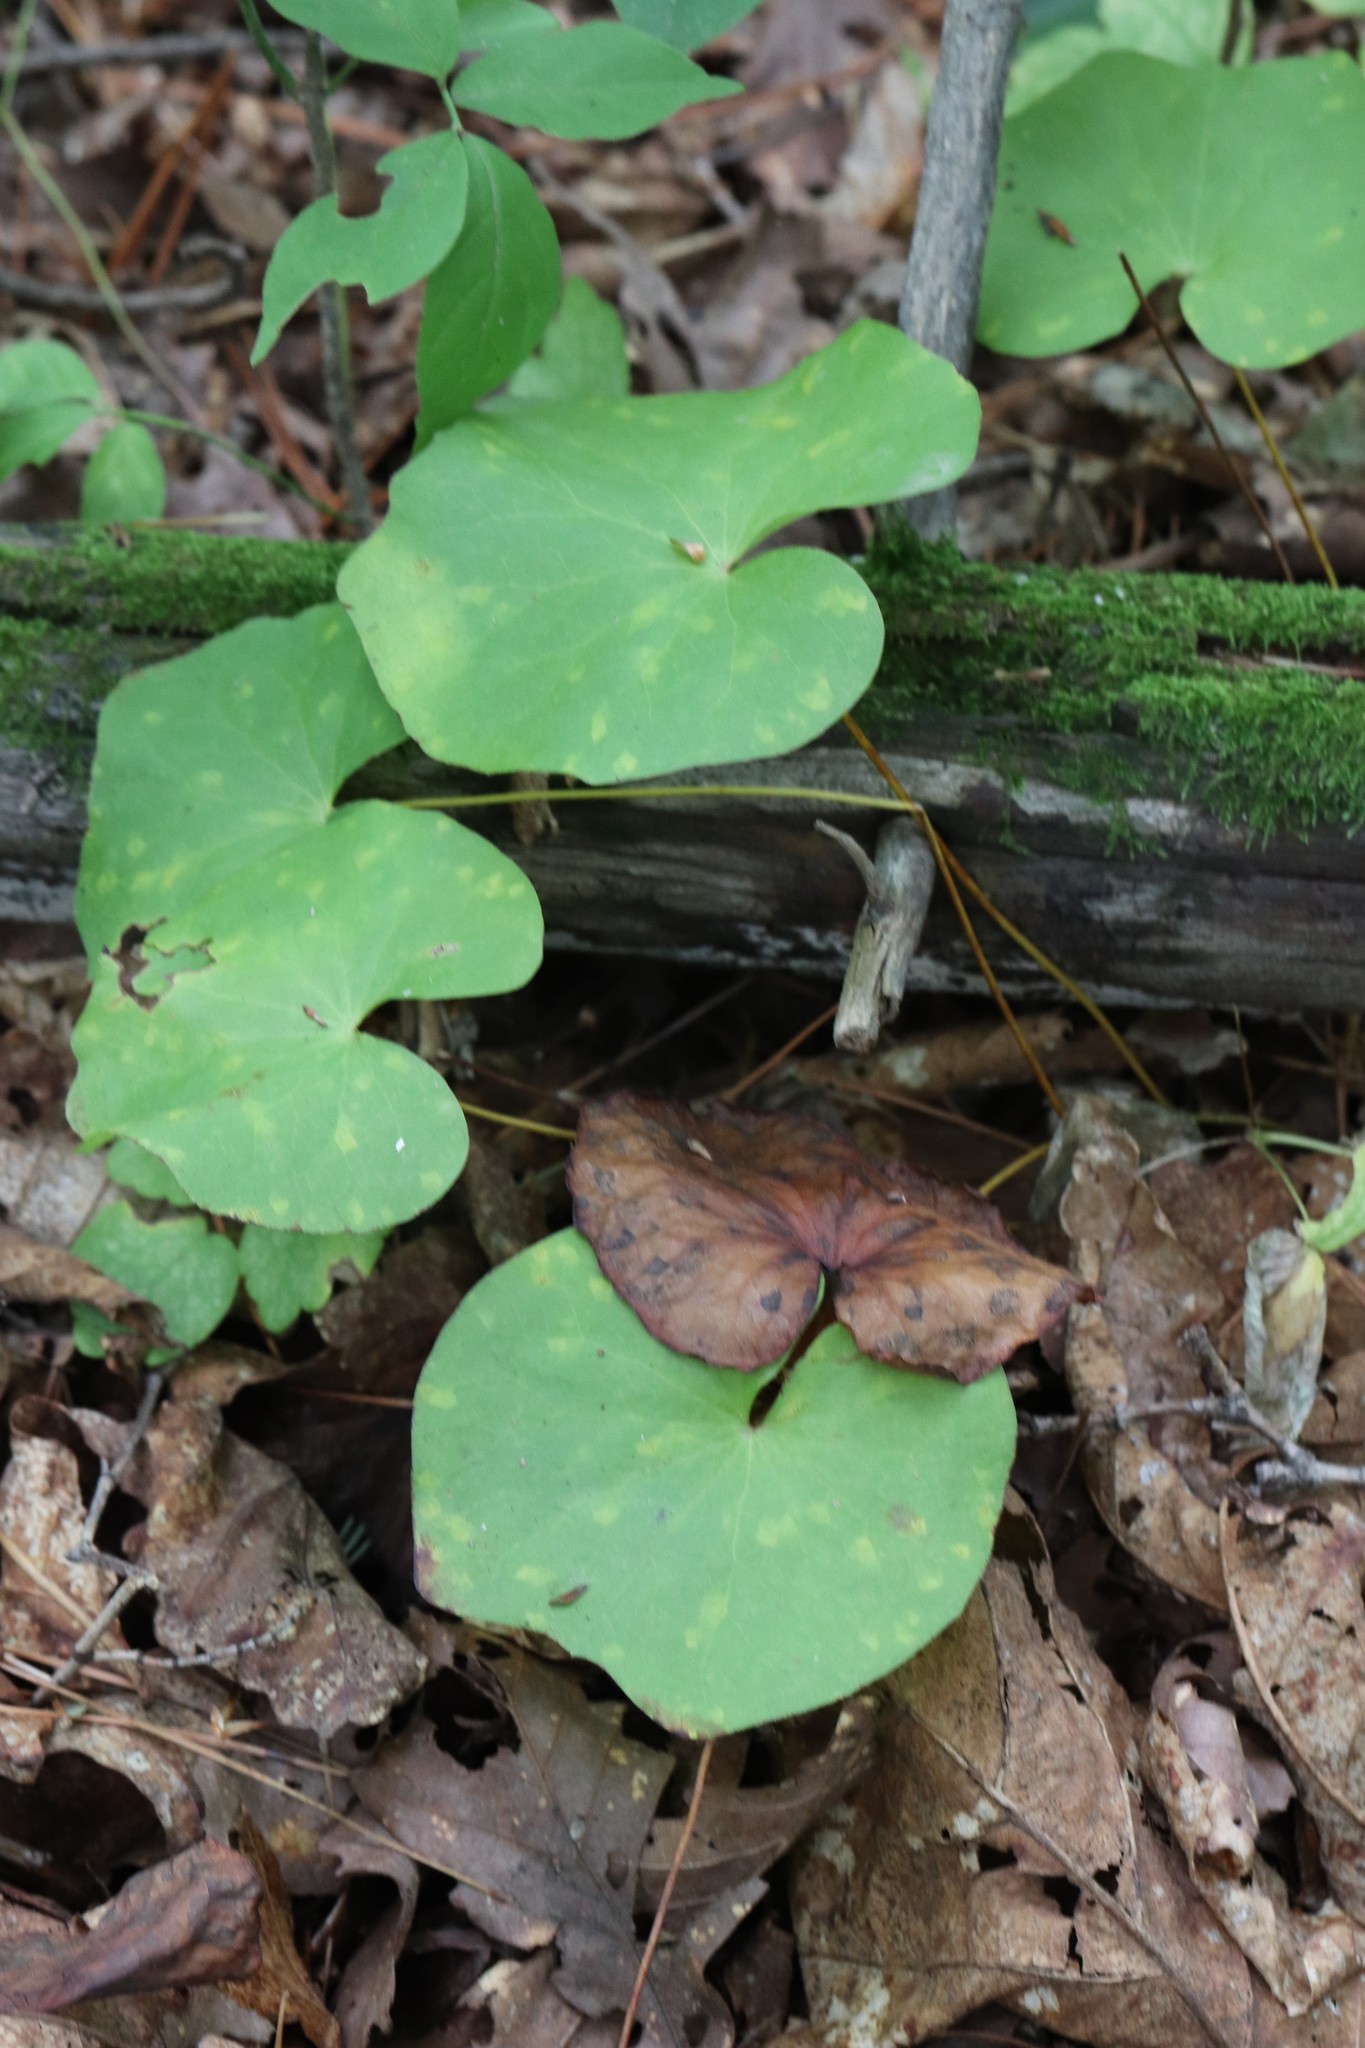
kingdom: Plantae
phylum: Tracheophyta
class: Magnoliopsida
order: Ranunculales
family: Berberidaceae
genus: Plagiorhegma
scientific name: Plagiorhegma dubium
